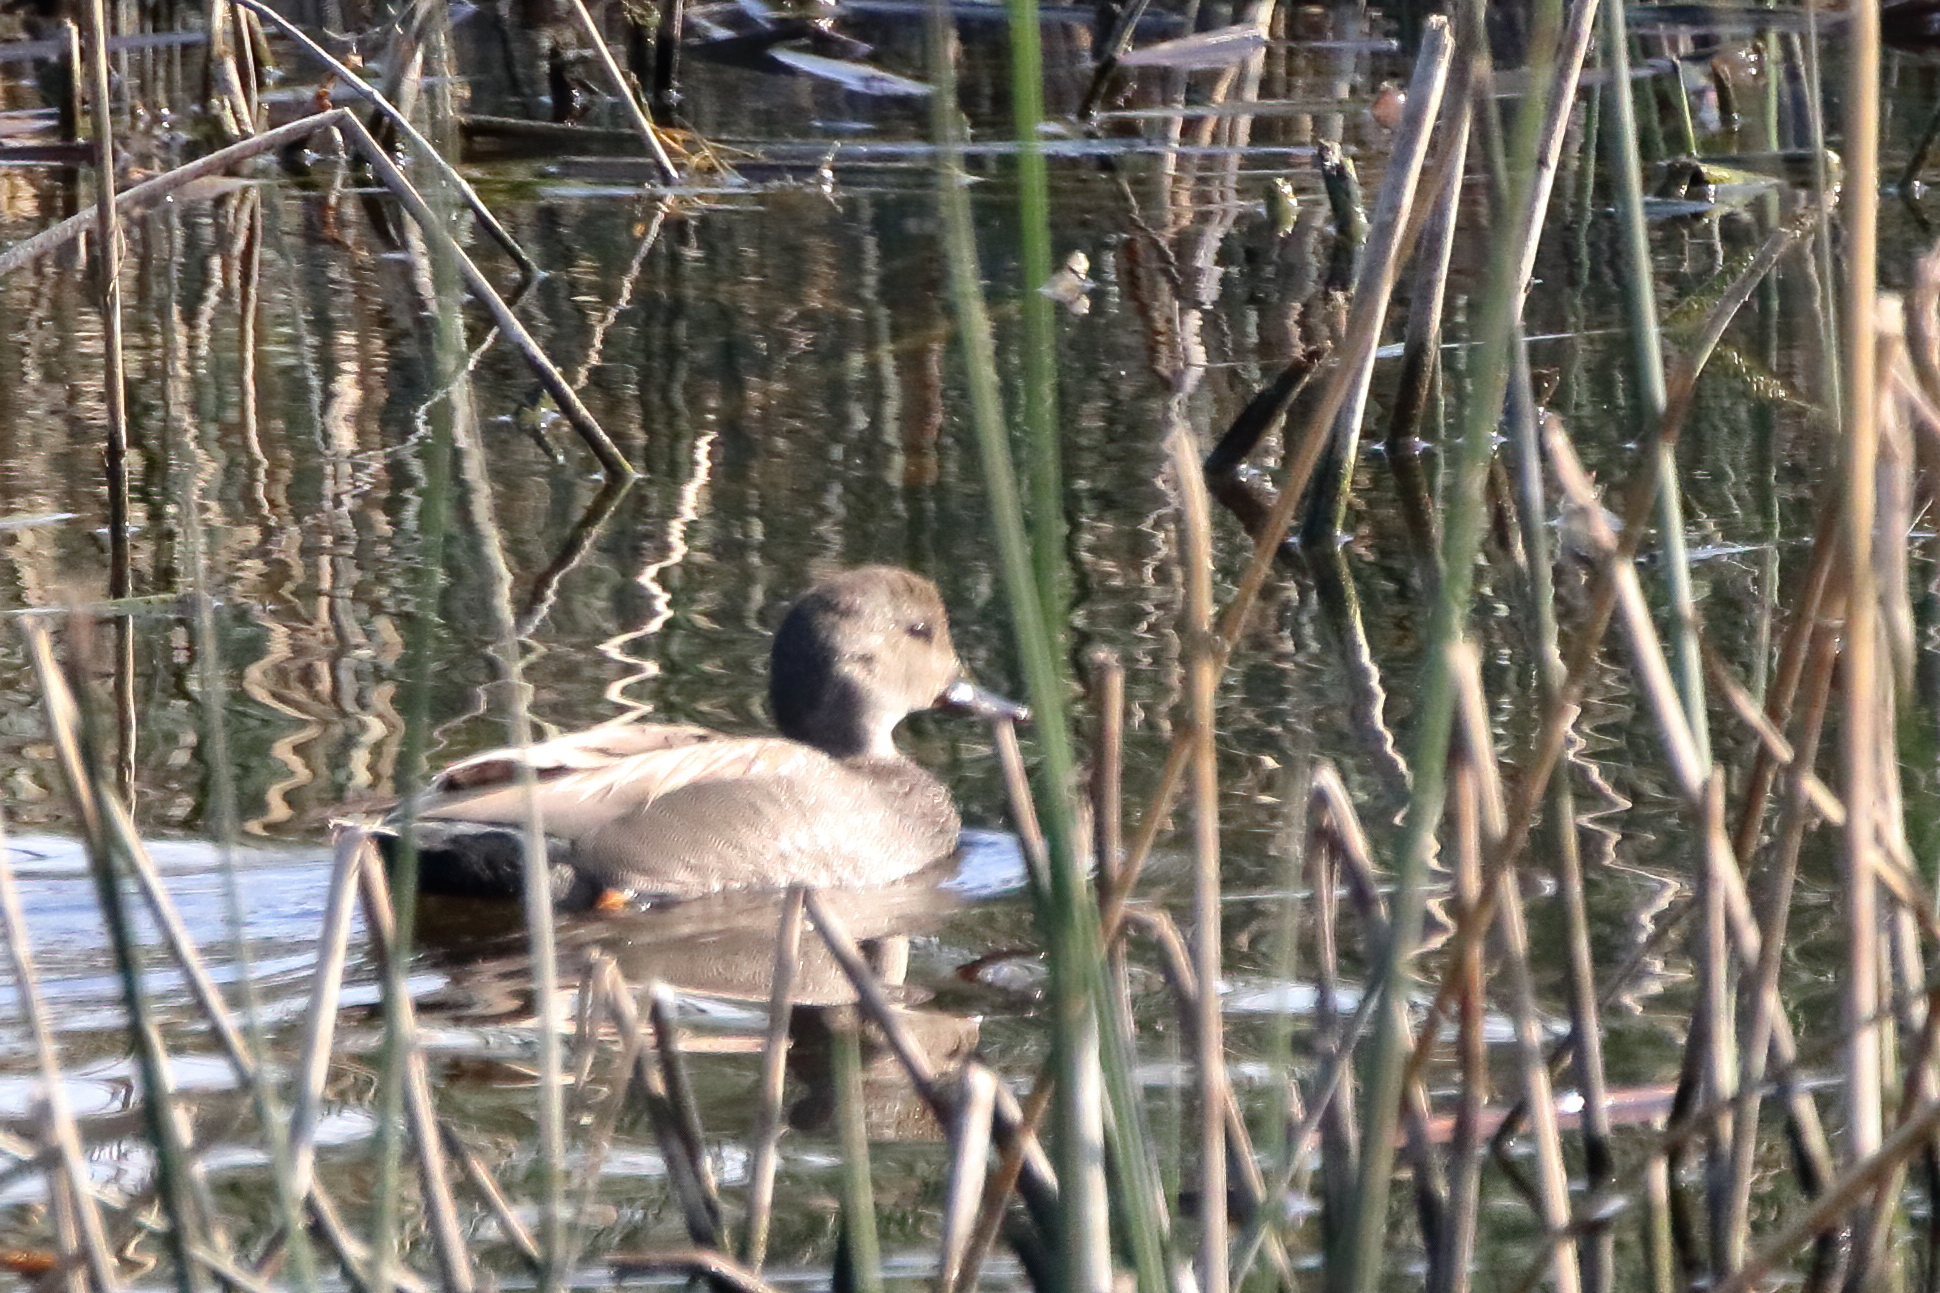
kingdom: Animalia
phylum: Chordata
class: Aves
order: Anseriformes
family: Anatidae
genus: Mareca
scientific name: Mareca strepera
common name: Gadwall
